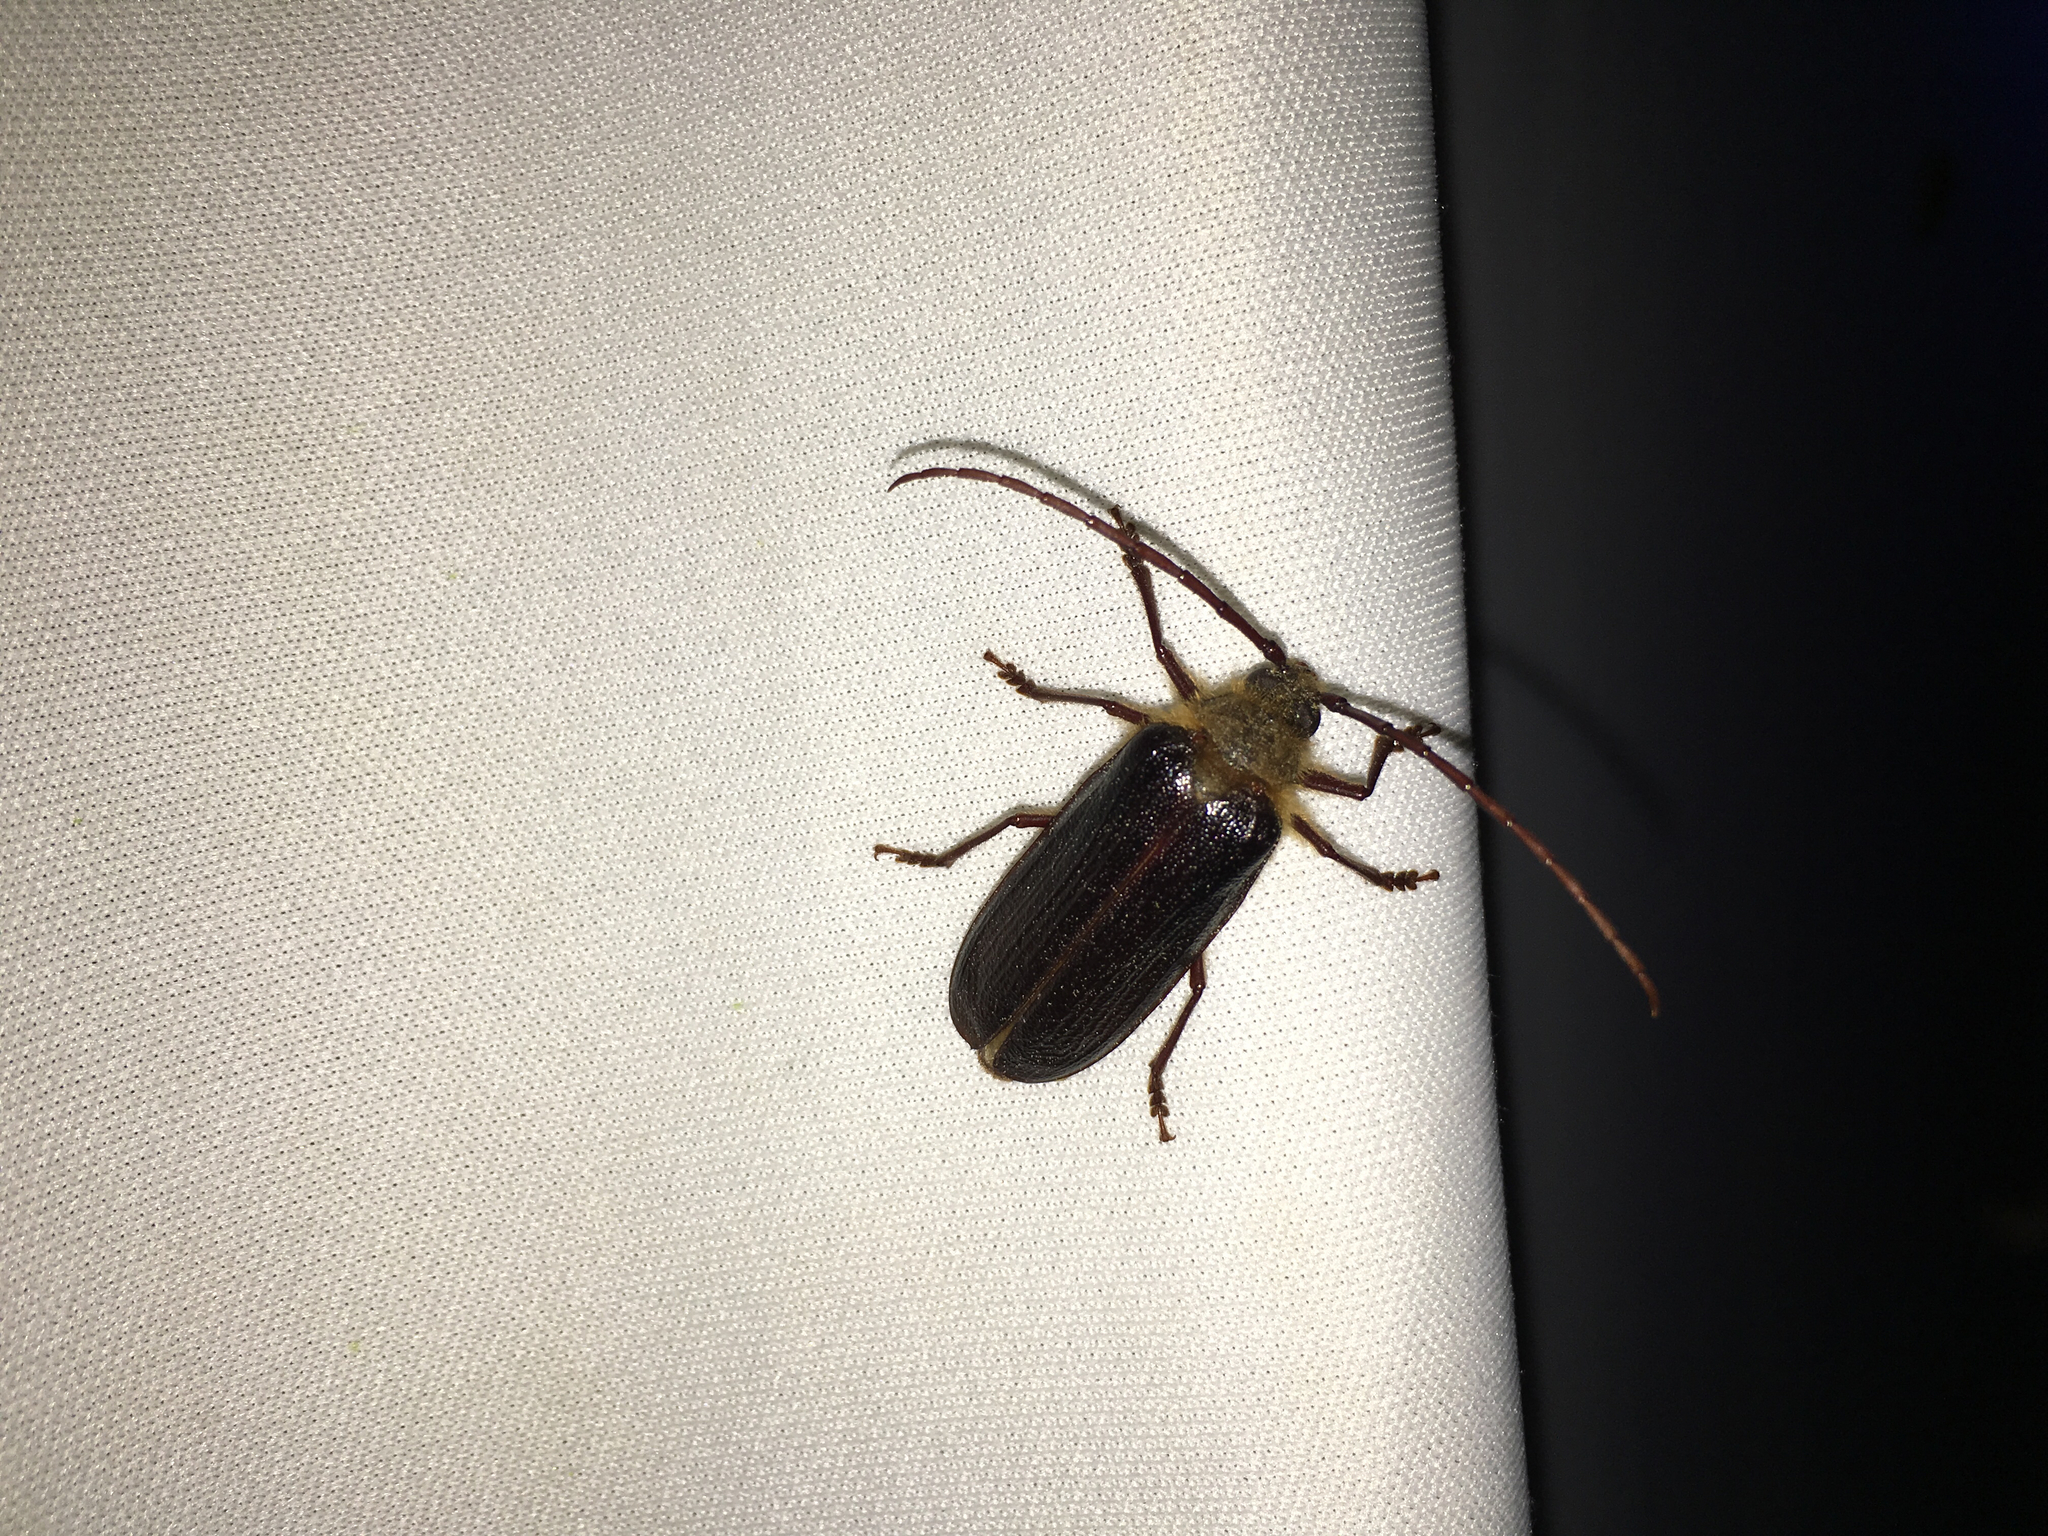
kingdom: Animalia
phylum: Arthropoda
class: Insecta
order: Coleoptera
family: Cerambycidae
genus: Tragosoma
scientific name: Tragosoma harrisii
